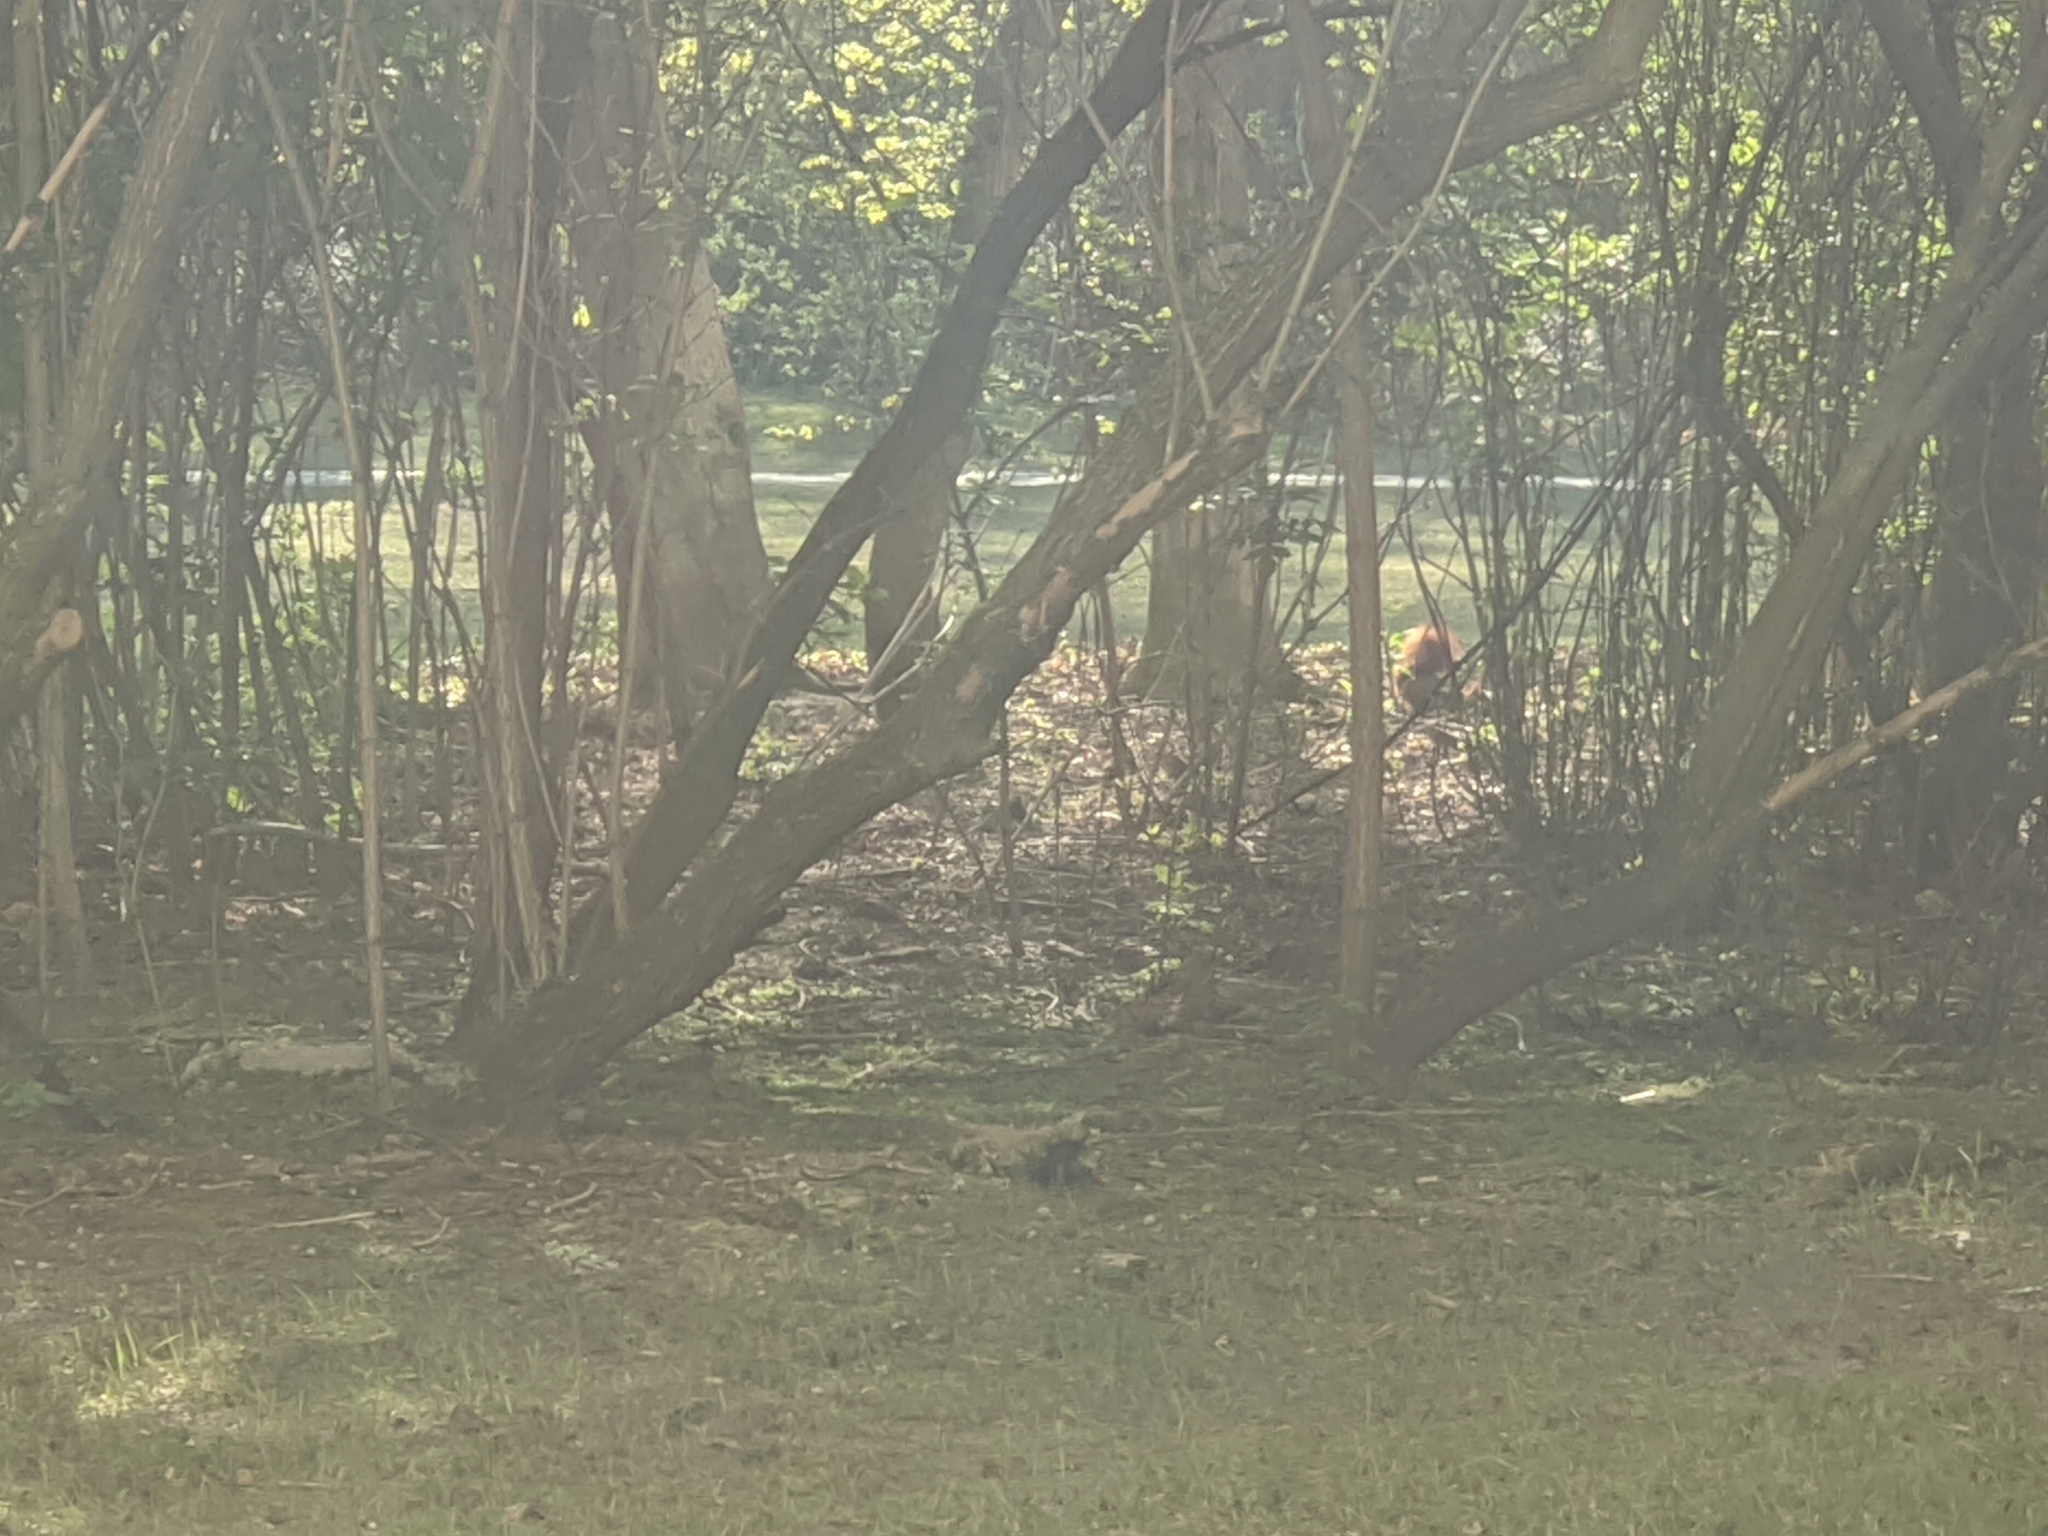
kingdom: Animalia
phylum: Chordata
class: Mammalia
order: Rodentia
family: Sciuridae
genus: Sciurus
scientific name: Sciurus vulgaris
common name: Eurasian red squirrel
